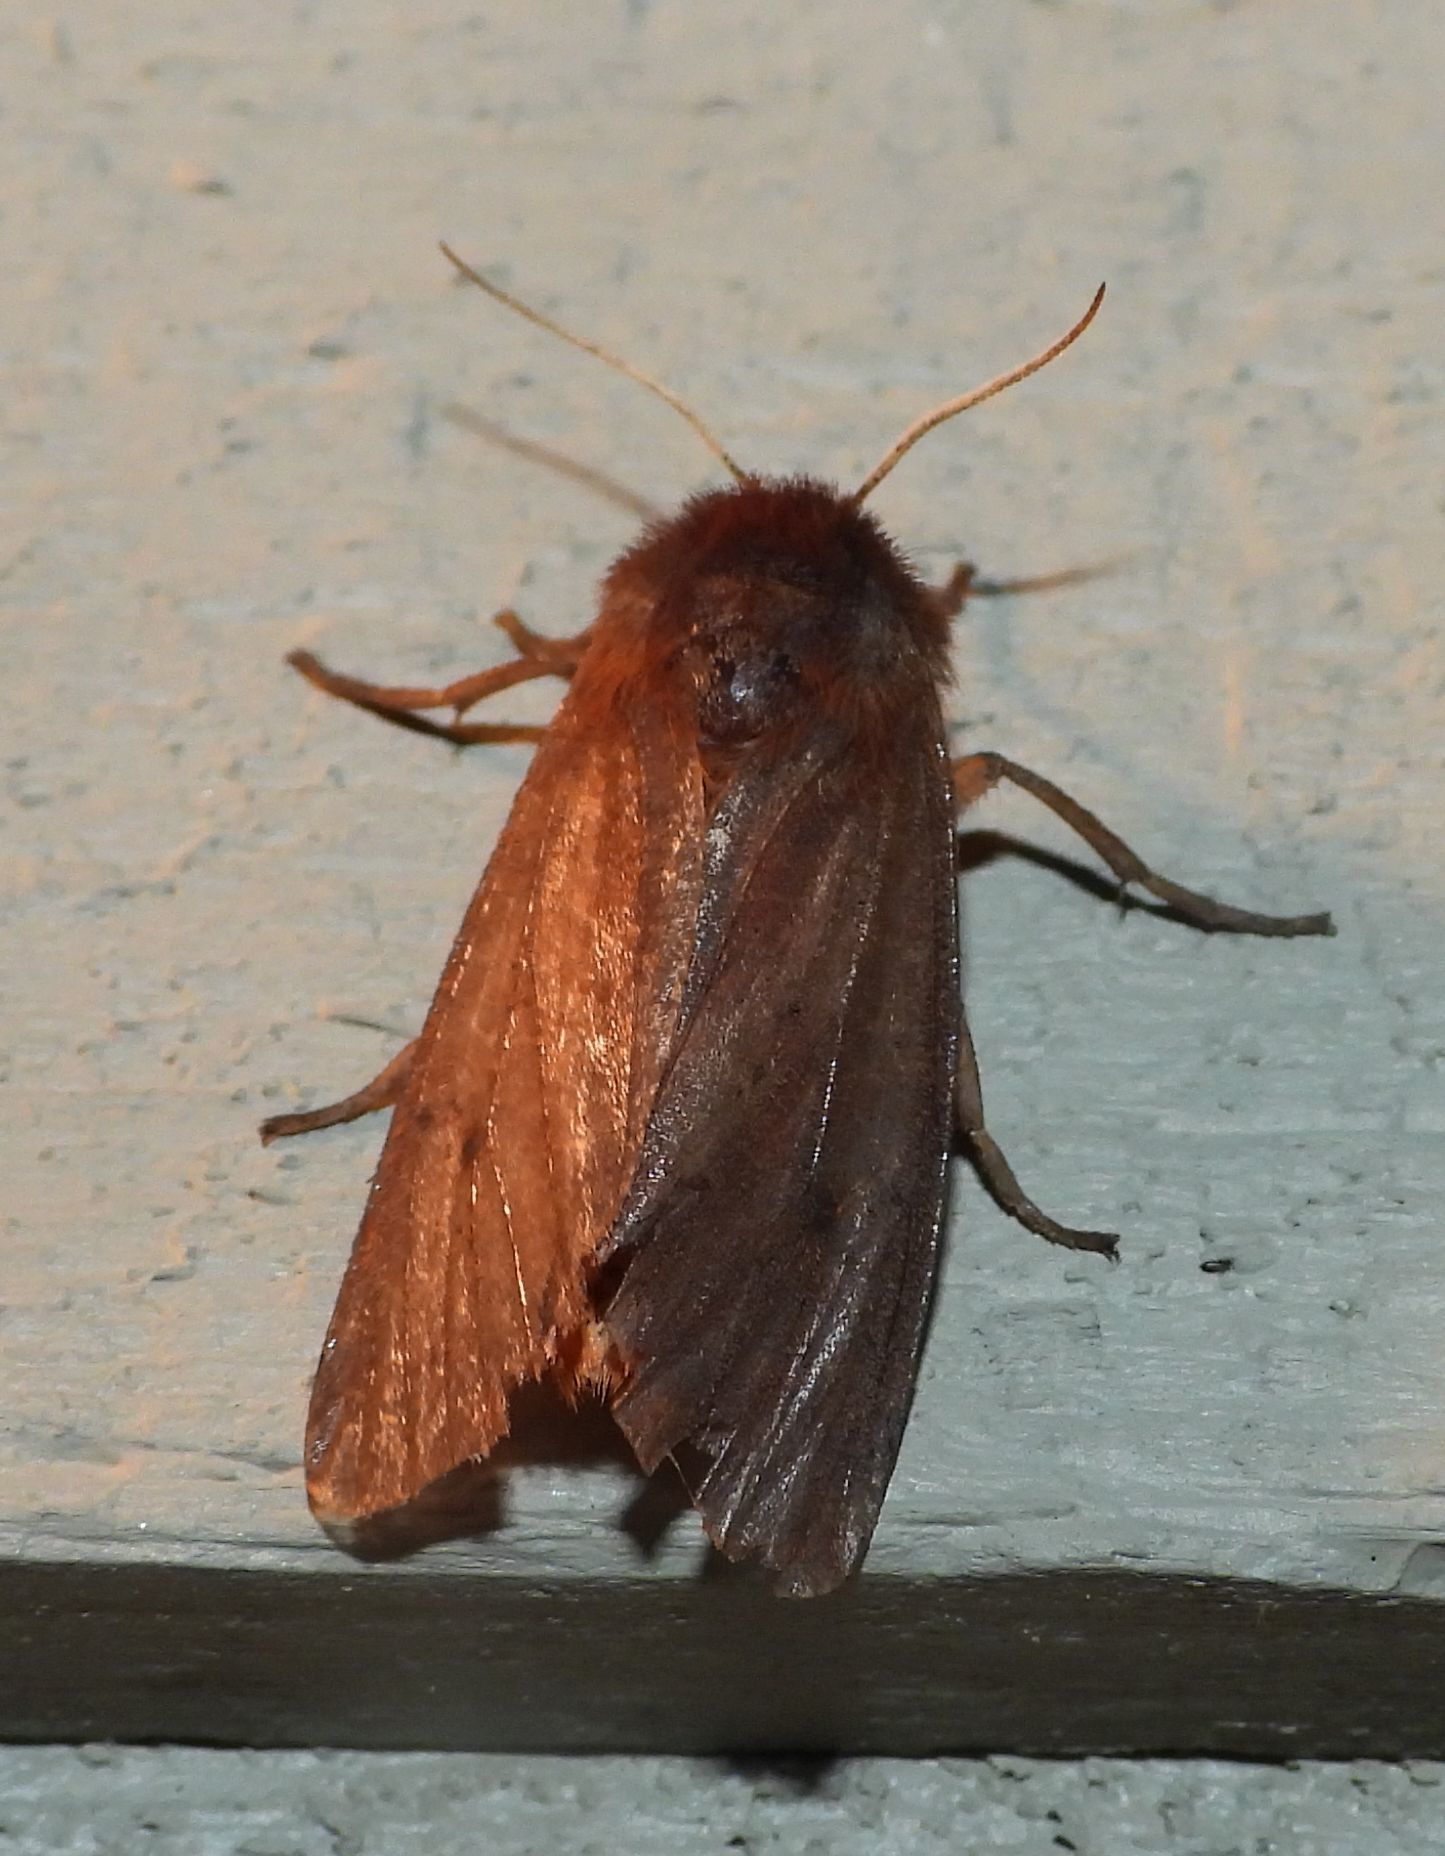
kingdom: Animalia
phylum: Arthropoda
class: Insecta
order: Lepidoptera
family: Erebidae
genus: Phragmatobia
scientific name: Phragmatobia fuliginosa
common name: Ruby tiger
